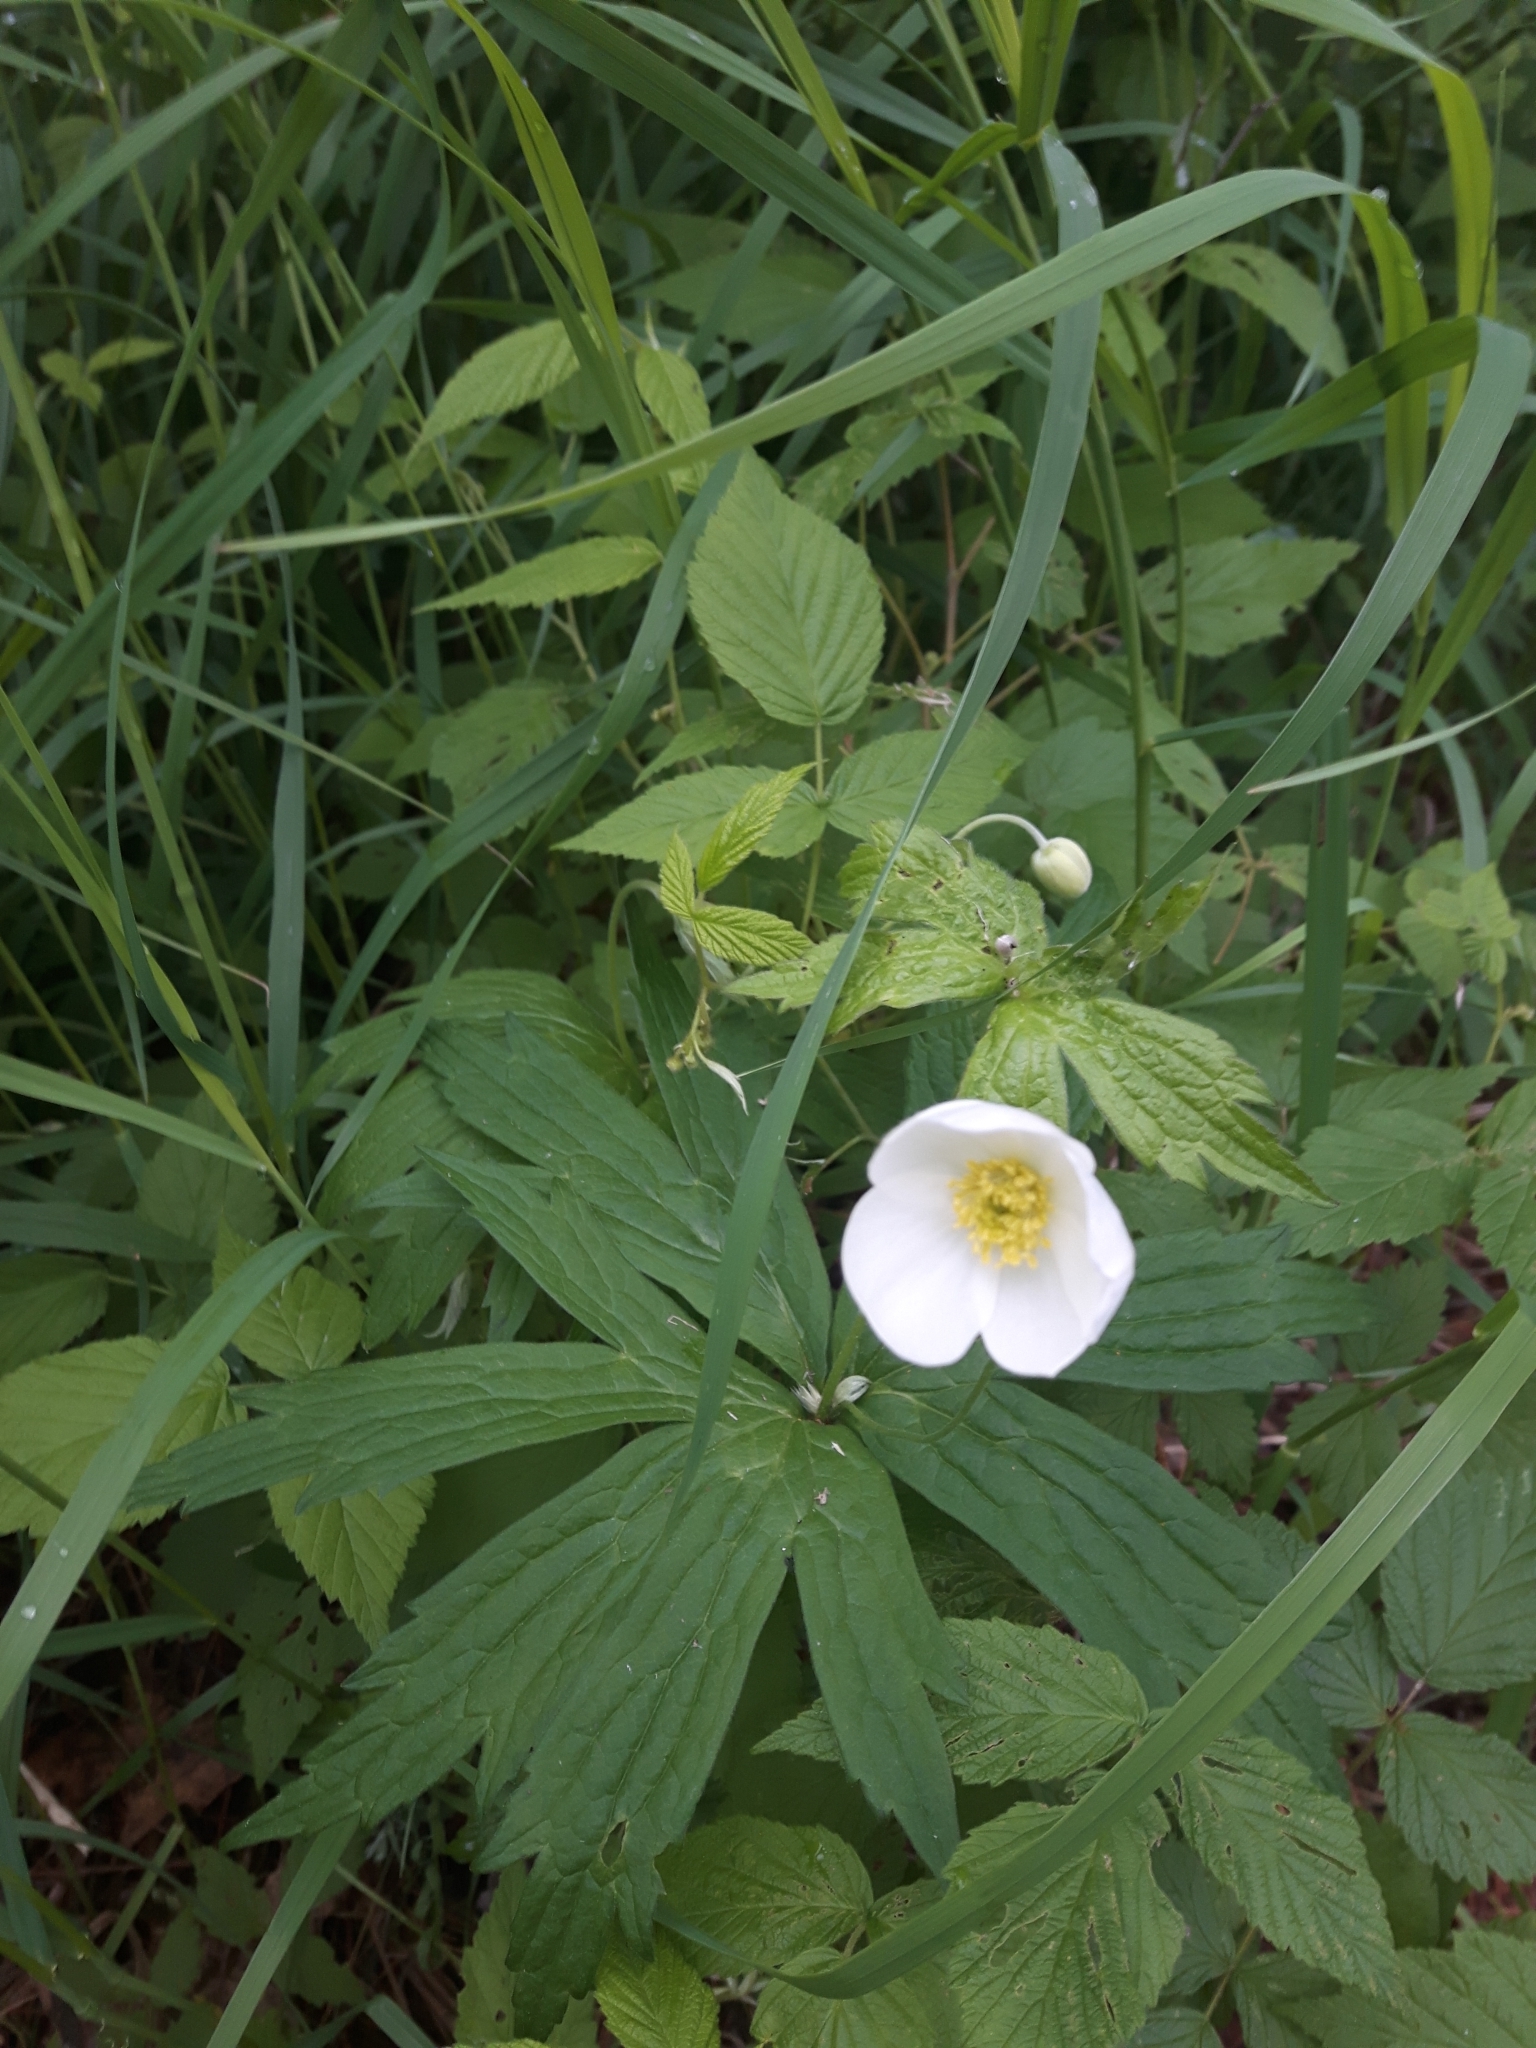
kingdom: Plantae
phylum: Tracheophyta
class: Magnoliopsida
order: Ranunculales
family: Ranunculaceae
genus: Anemonastrum
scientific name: Anemonastrum canadense
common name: Canada anemone
